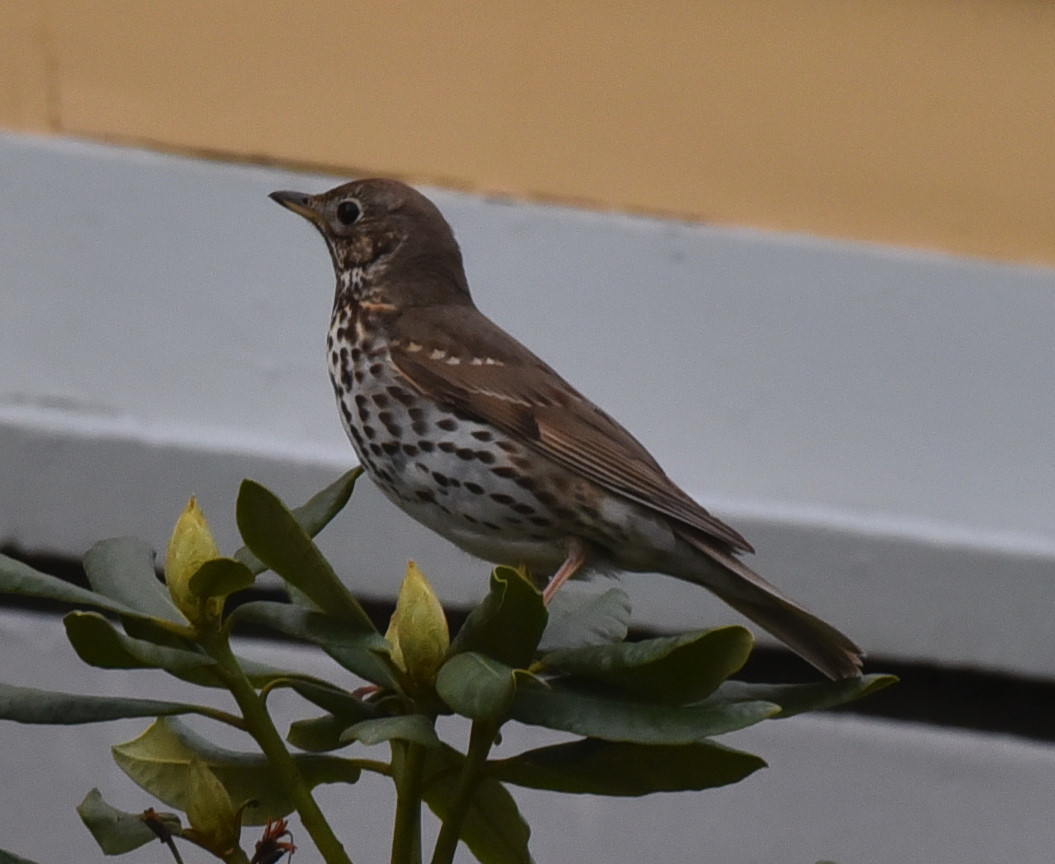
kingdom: Animalia
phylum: Chordata
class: Aves
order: Passeriformes
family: Turdidae
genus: Turdus
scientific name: Turdus philomelos
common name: Song thrush
